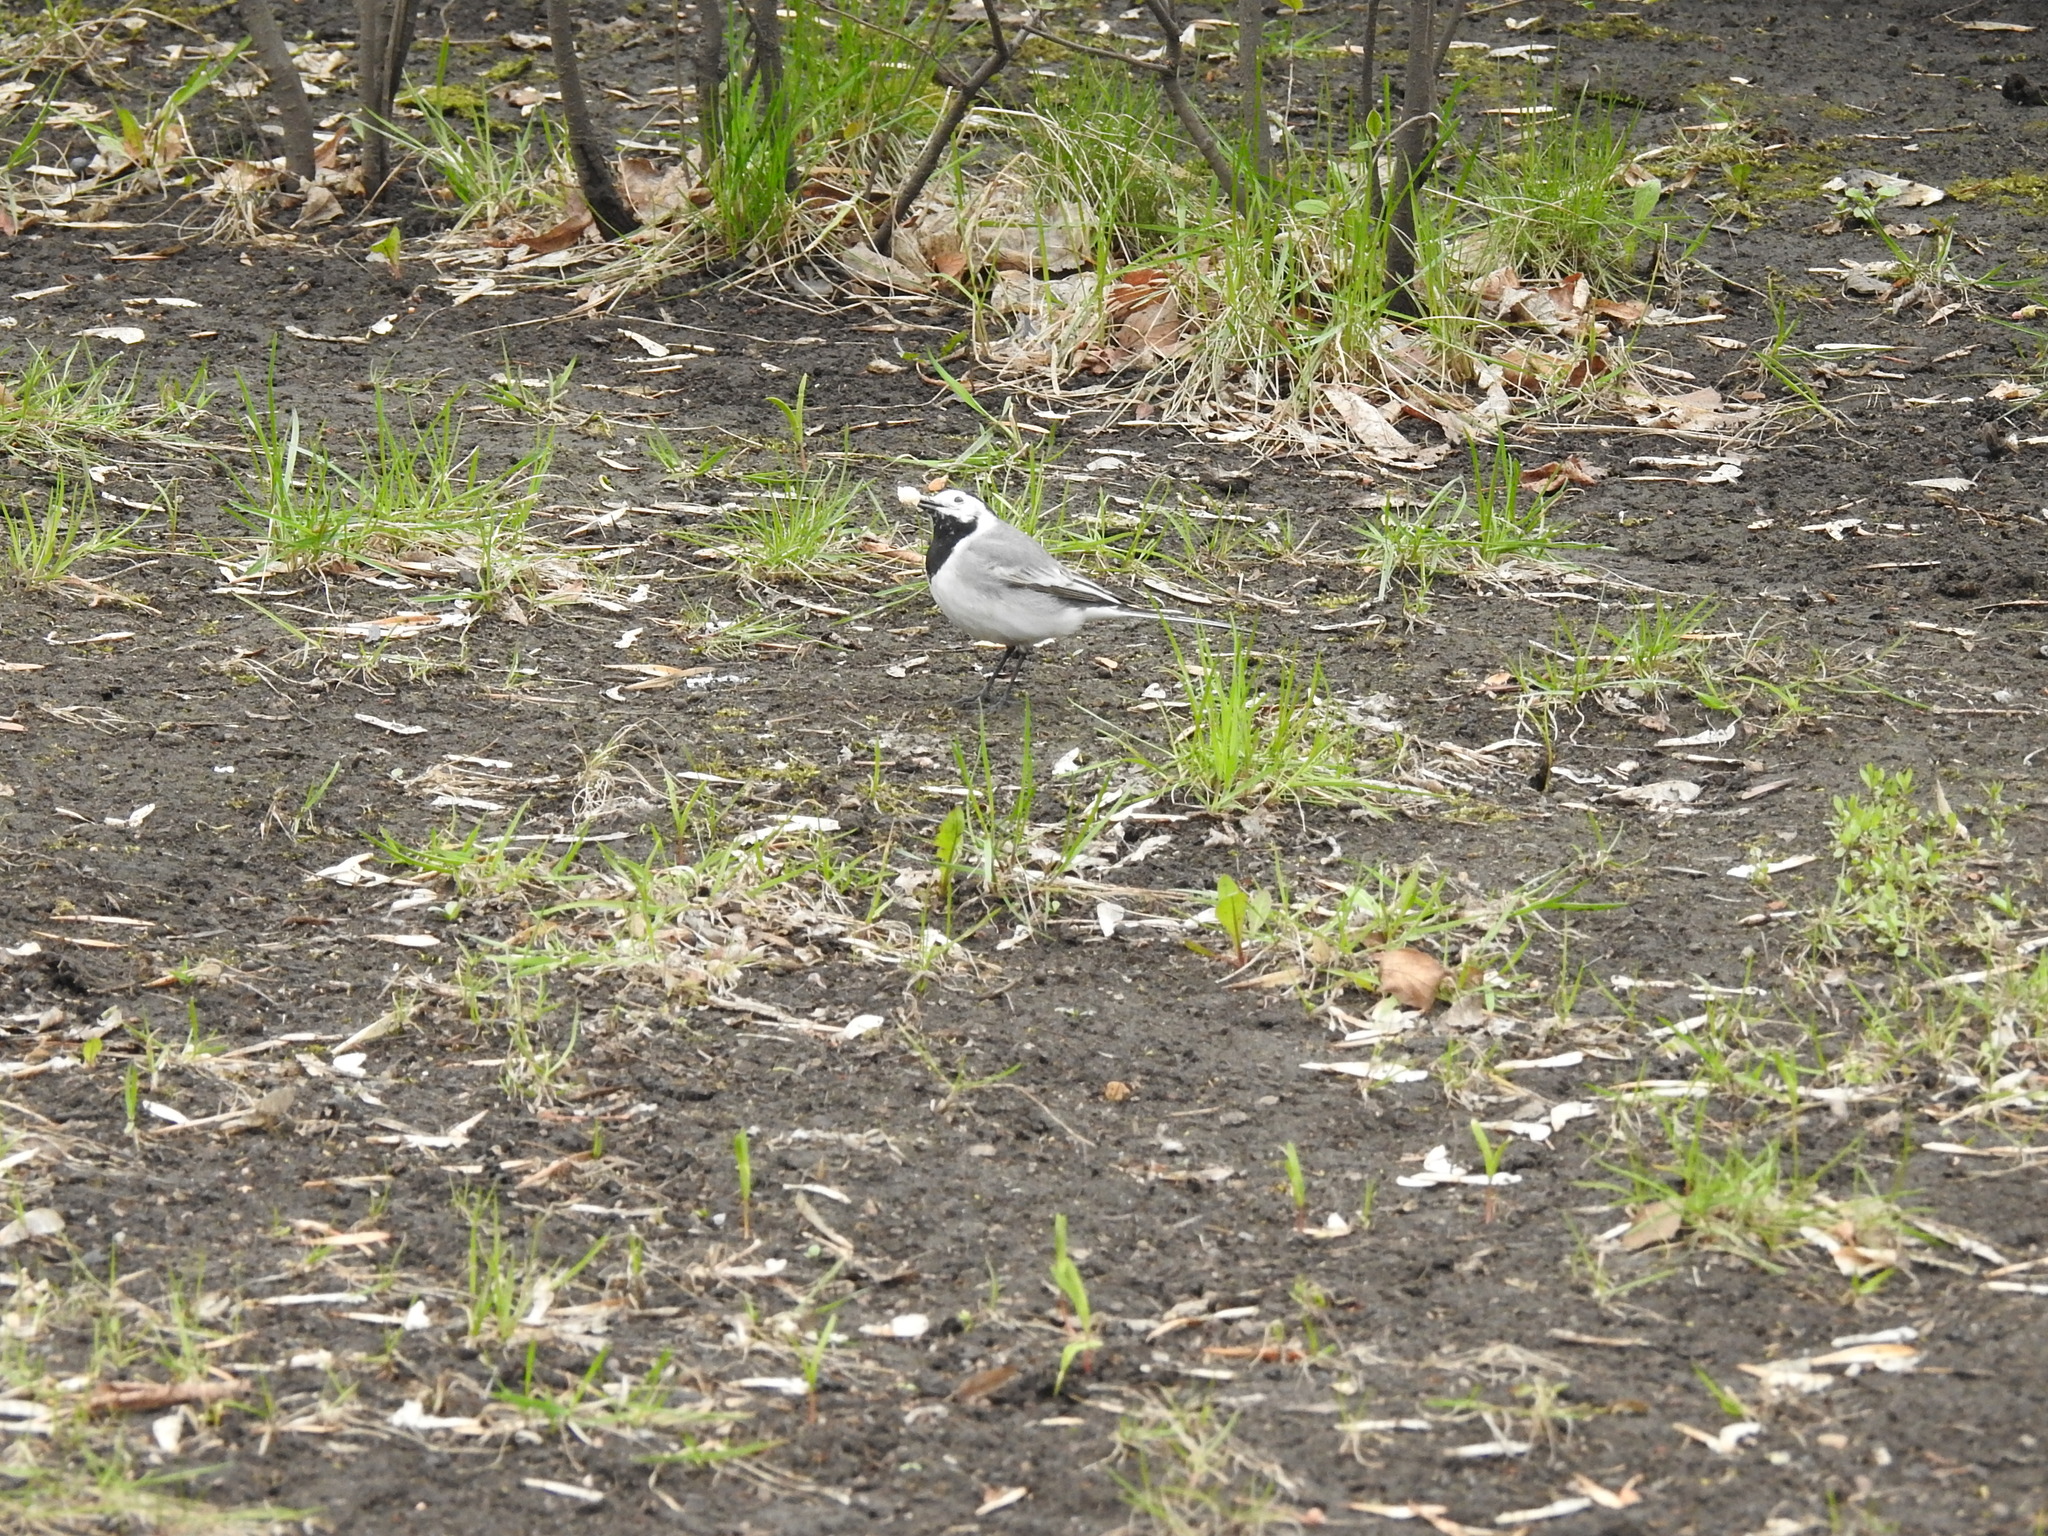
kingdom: Animalia
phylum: Chordata
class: Aves
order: Passeriformes
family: Motacillidae
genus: Motacilla
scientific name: Motacilla alba
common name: White wagtail
